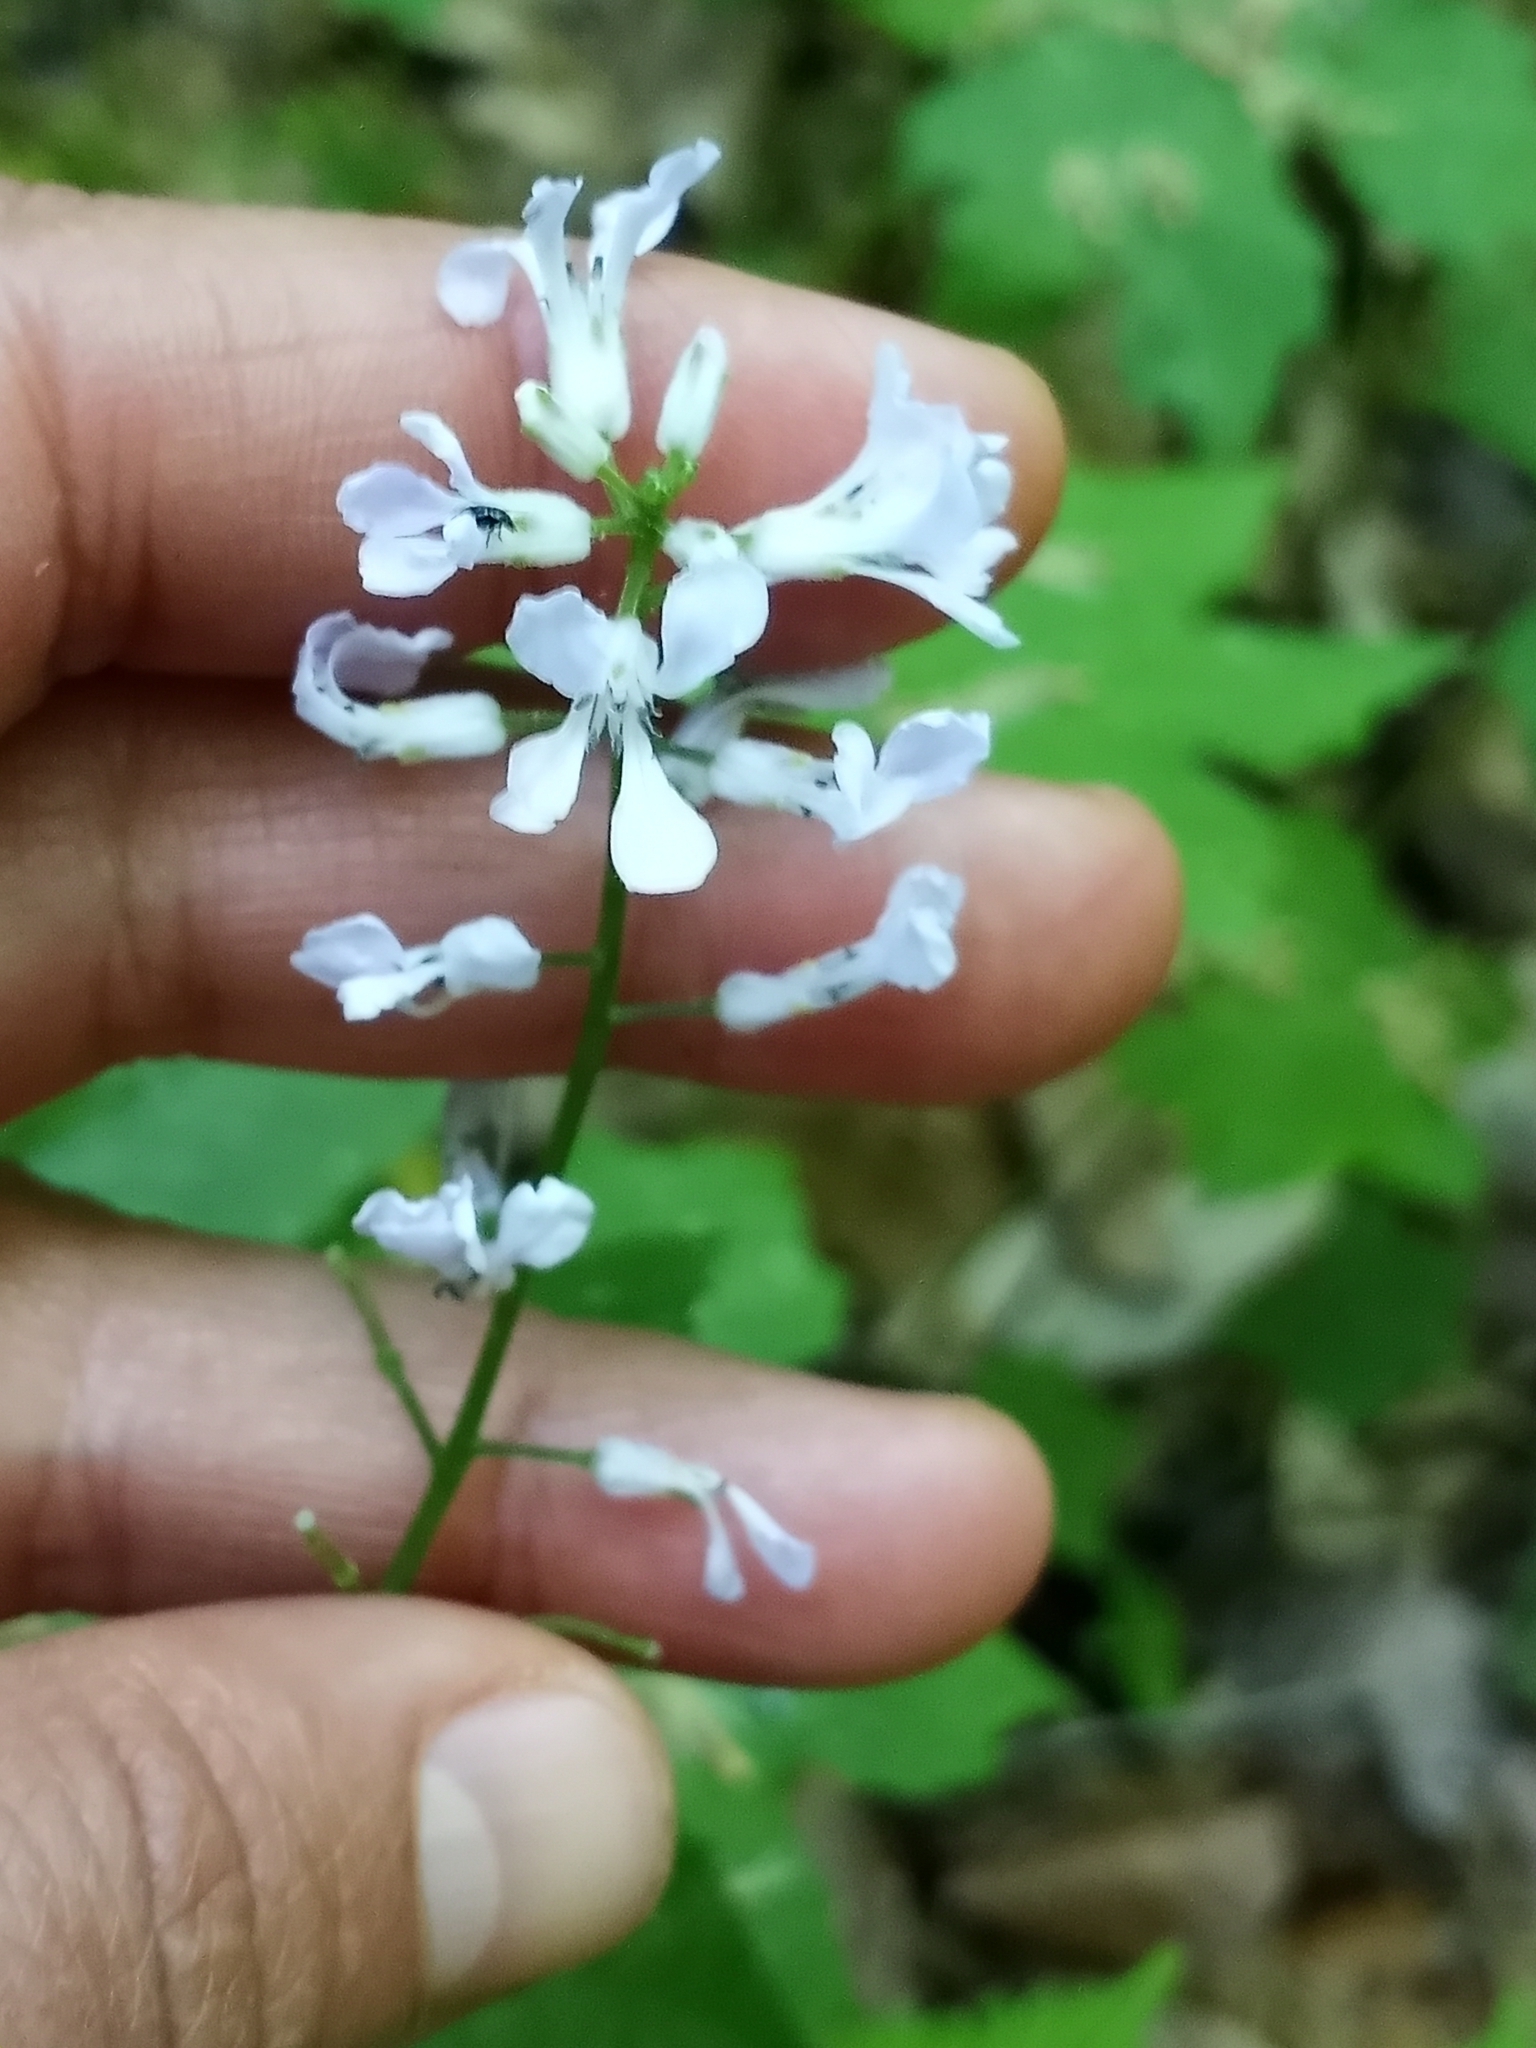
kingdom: Plantae
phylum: Tracheophyta
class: Magnoliopsida
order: Brassicales
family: Brassicaceae
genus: Iodanthus
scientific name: Iodanthus pinnatifidus
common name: Violet rocket
